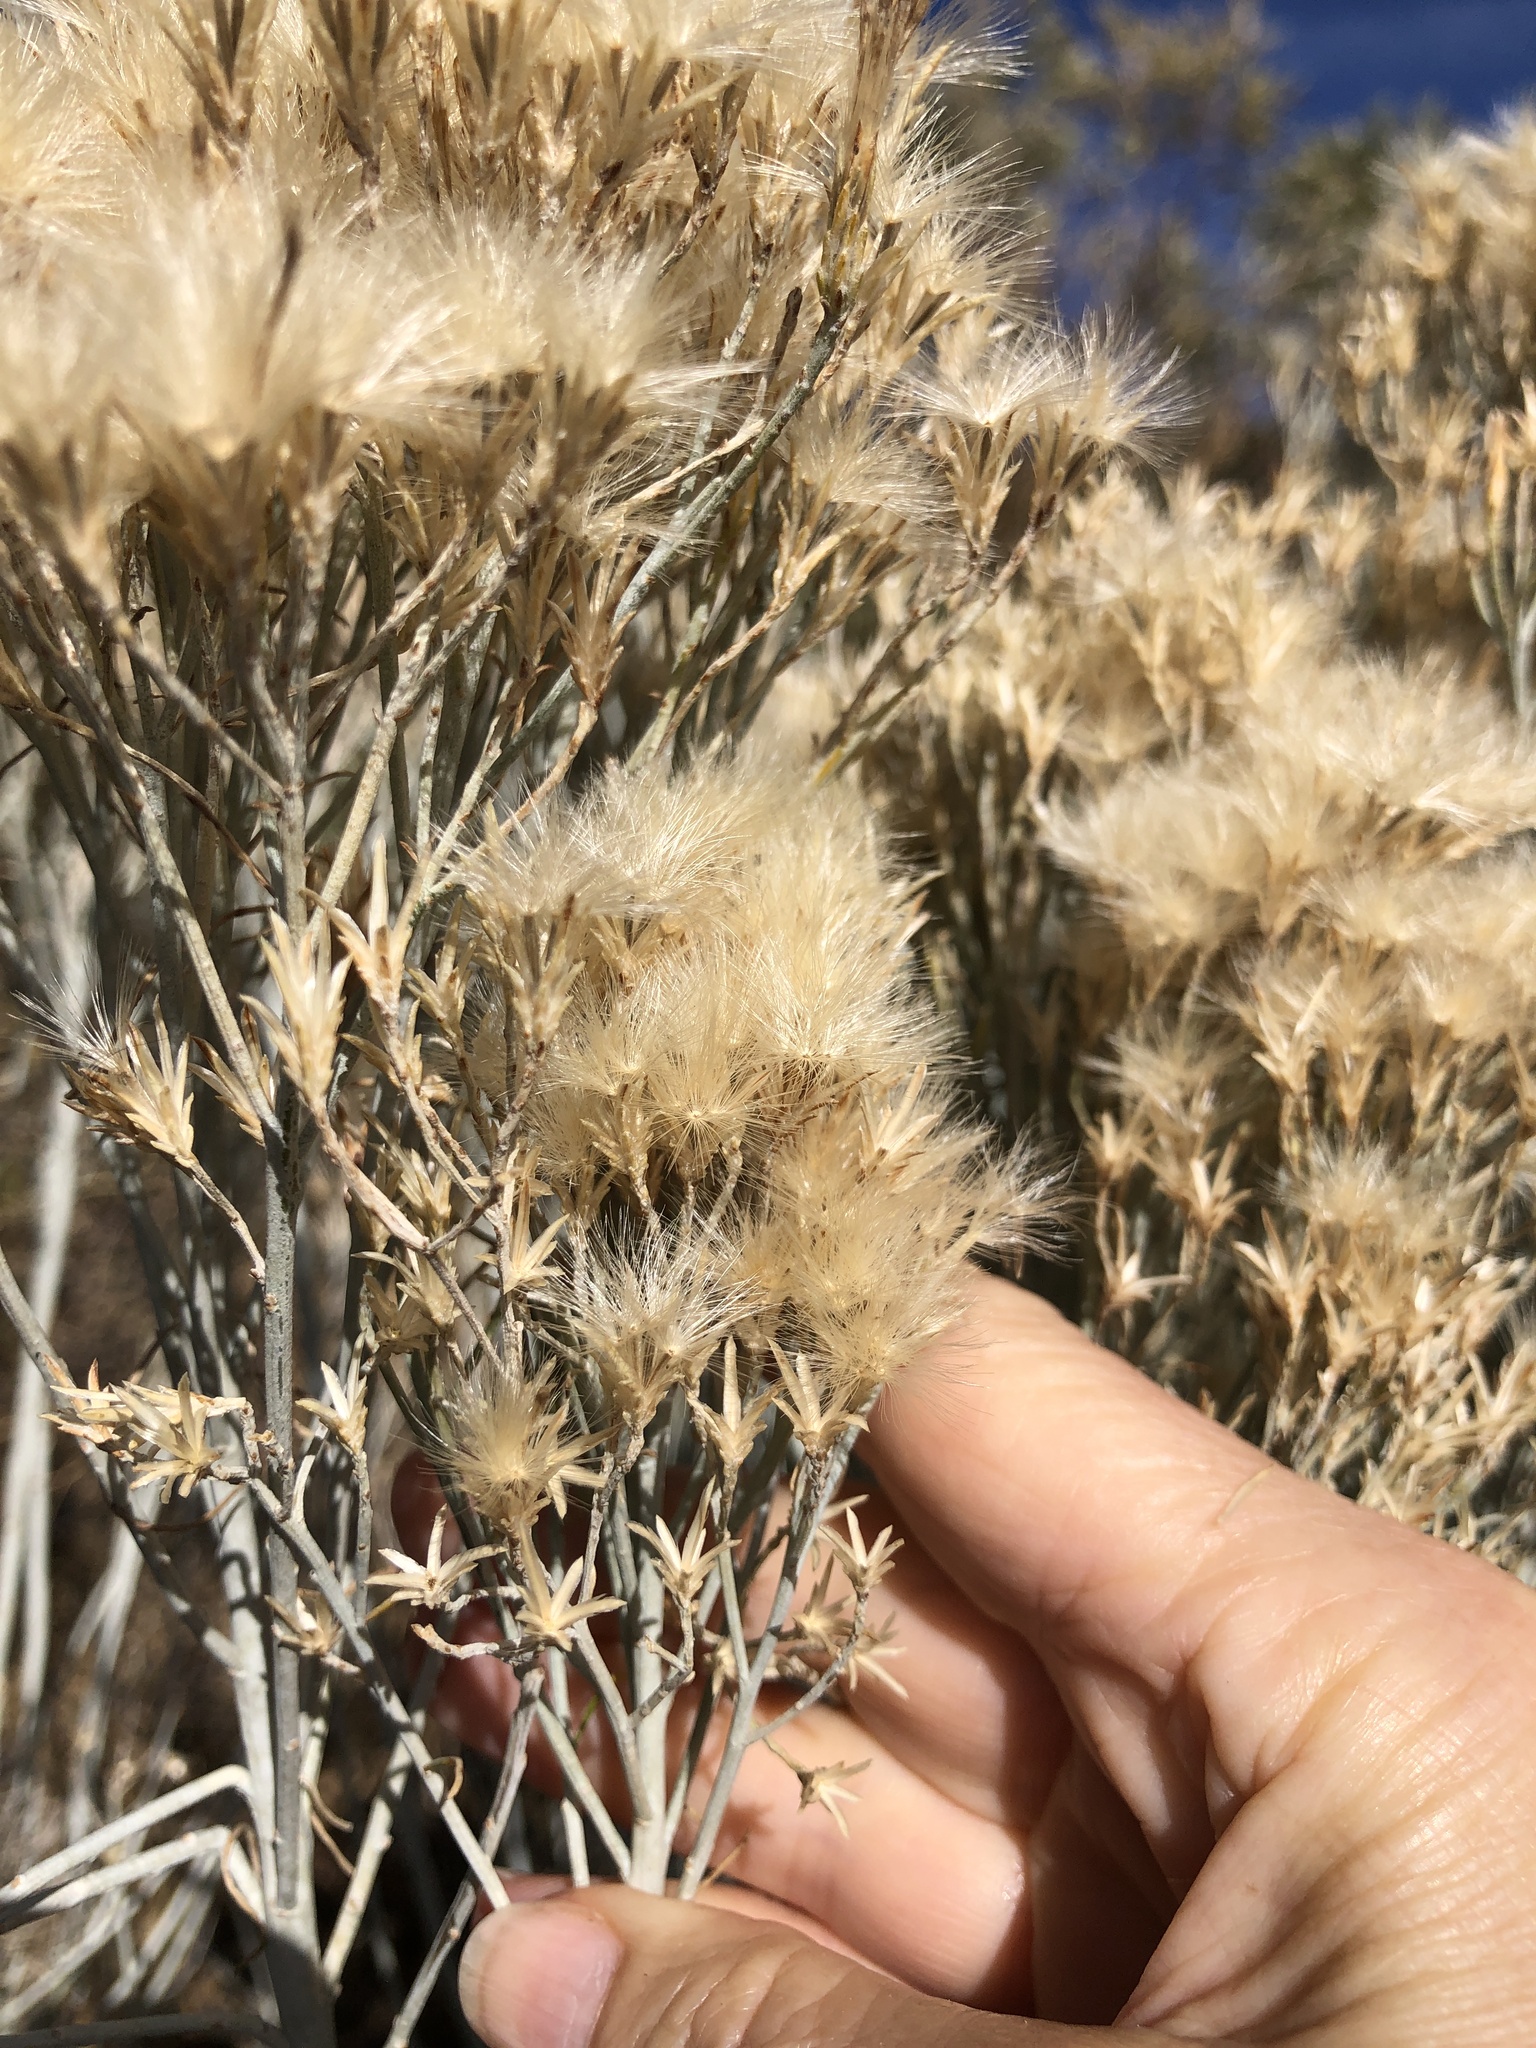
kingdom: Plantae
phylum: Tracheophyta
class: Magnoliopsida
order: Asterales
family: Asteraceae
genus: Ericameria
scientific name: Ericameria nauseosa
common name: Rubber rabbitbrush
